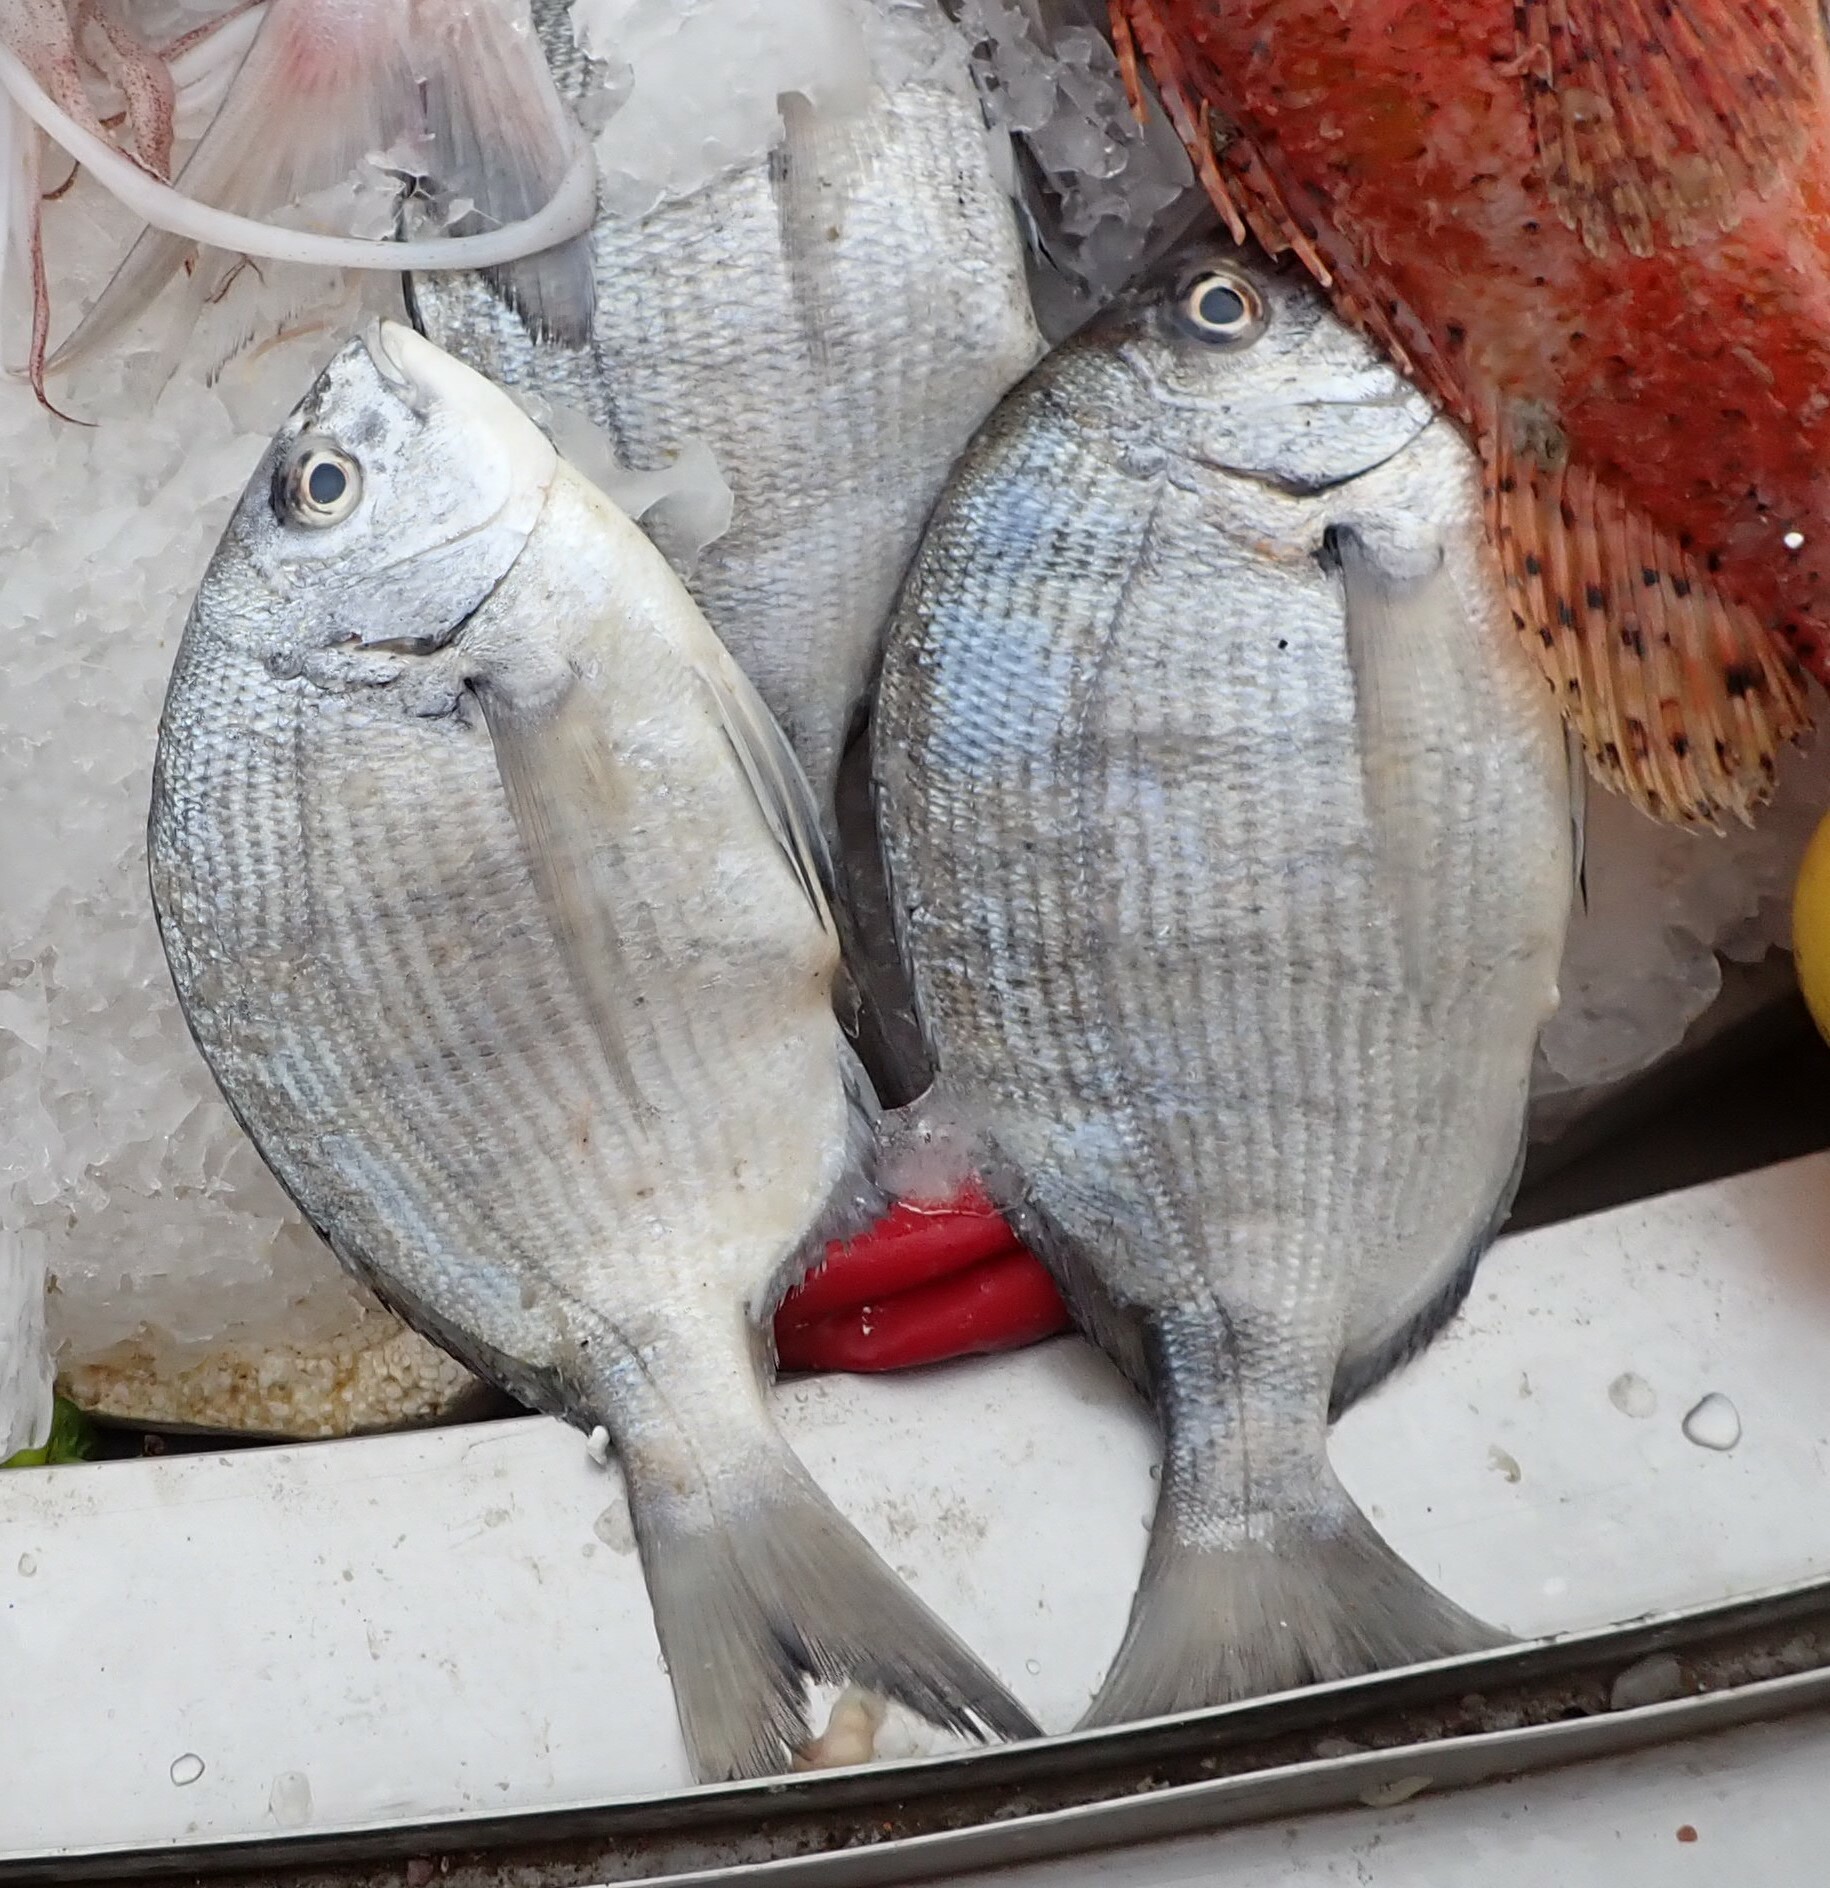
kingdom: Animalia
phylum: Chordata
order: Perciformes
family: Sparidae
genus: Diplodus
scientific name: Diplodus cadenati
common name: Moroccan white seabream
